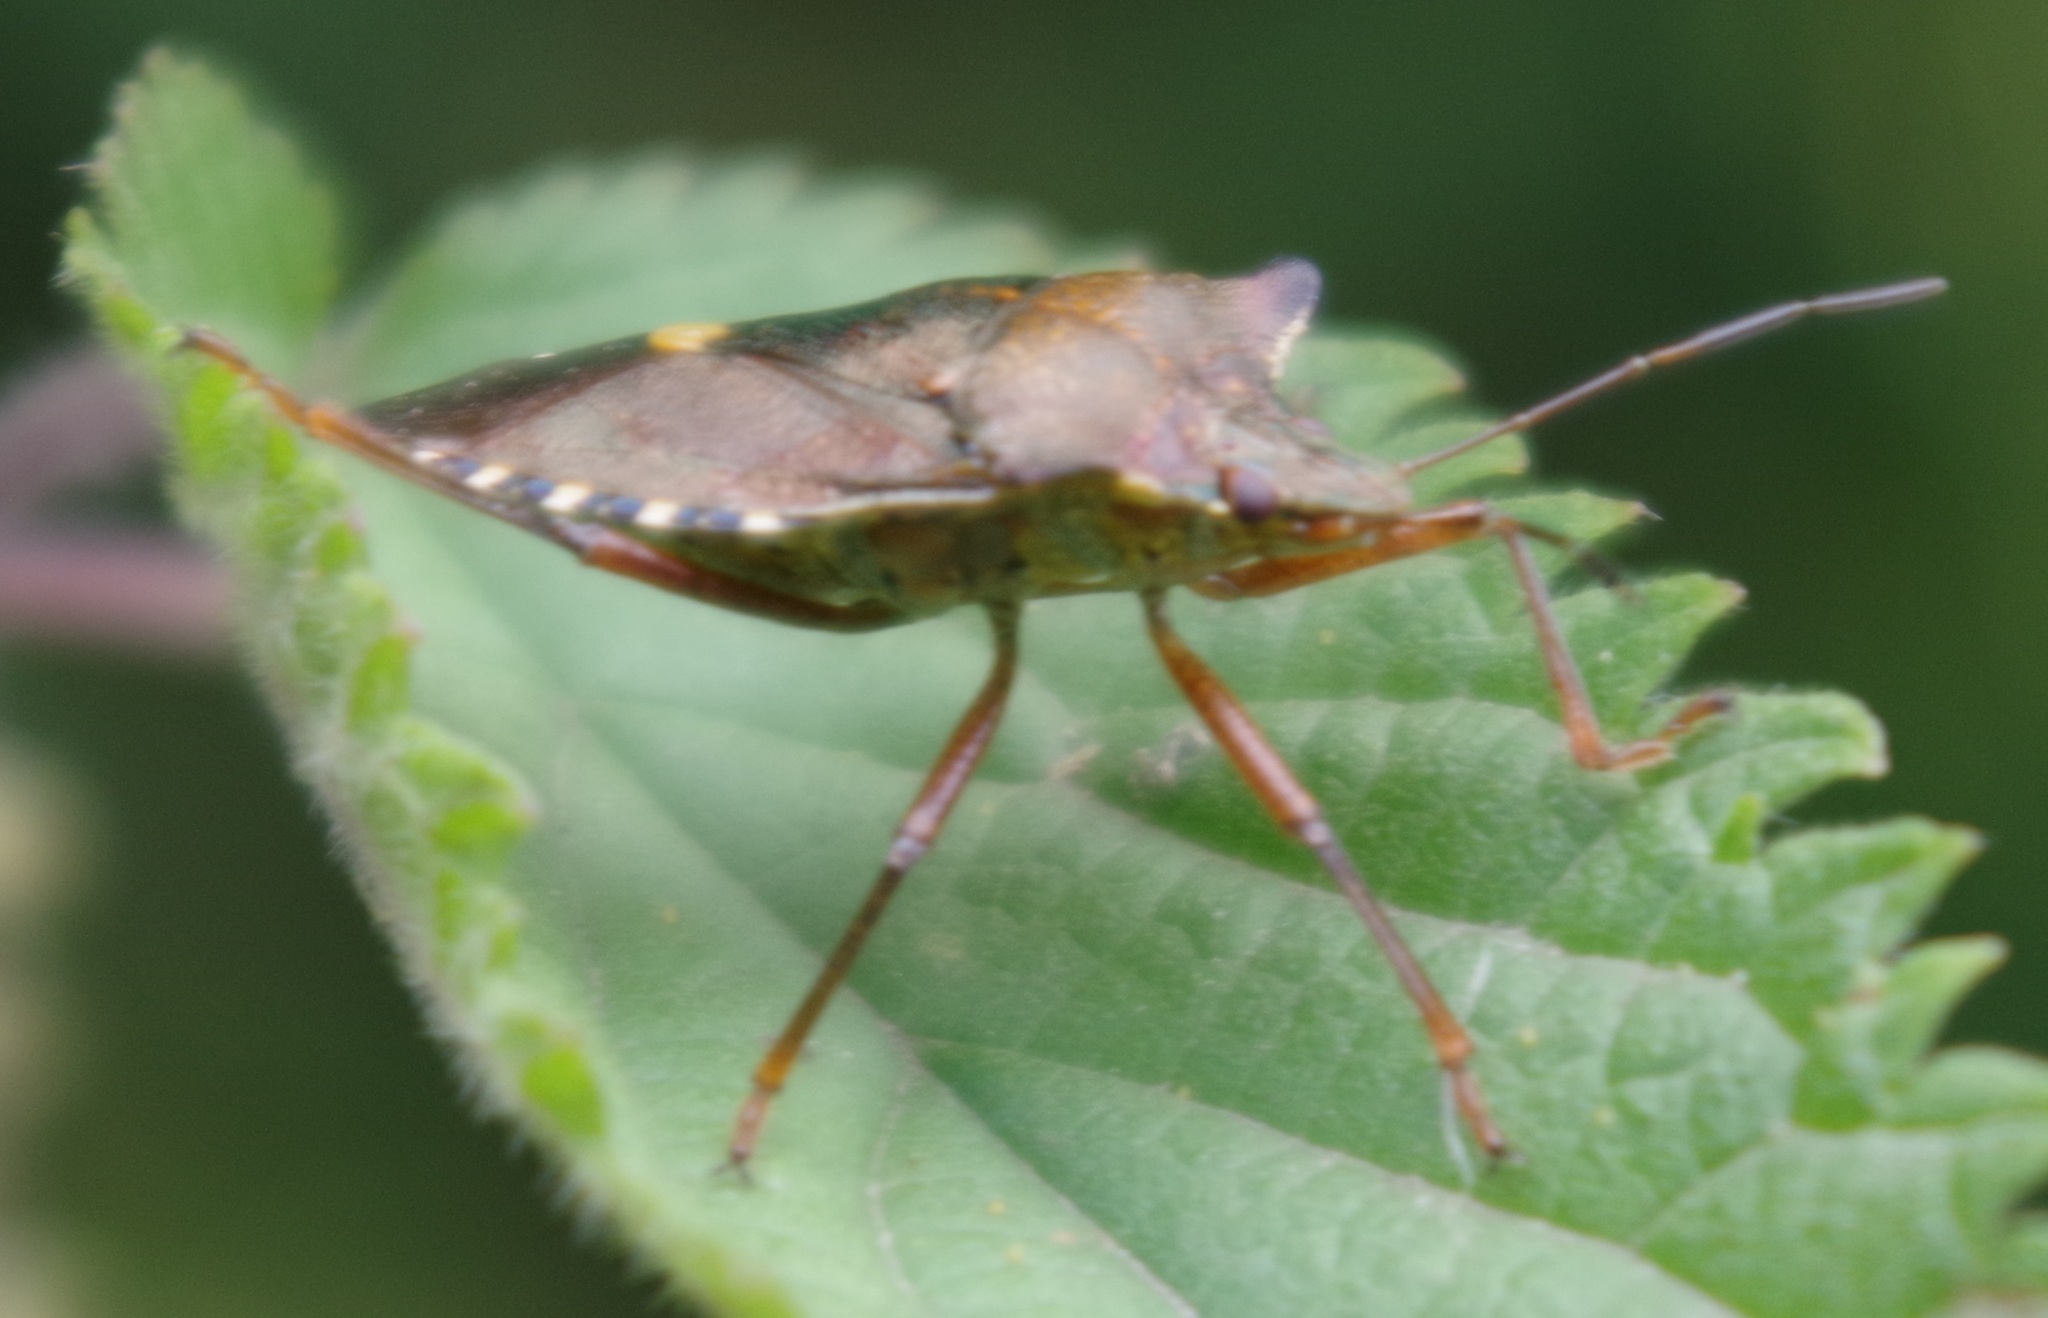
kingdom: Animalia
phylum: Arthropoda
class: Insecta
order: Hemiptera
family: Pentatomidae
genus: Pentatoma
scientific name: Pentatoma rufipes
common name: Forest bug
